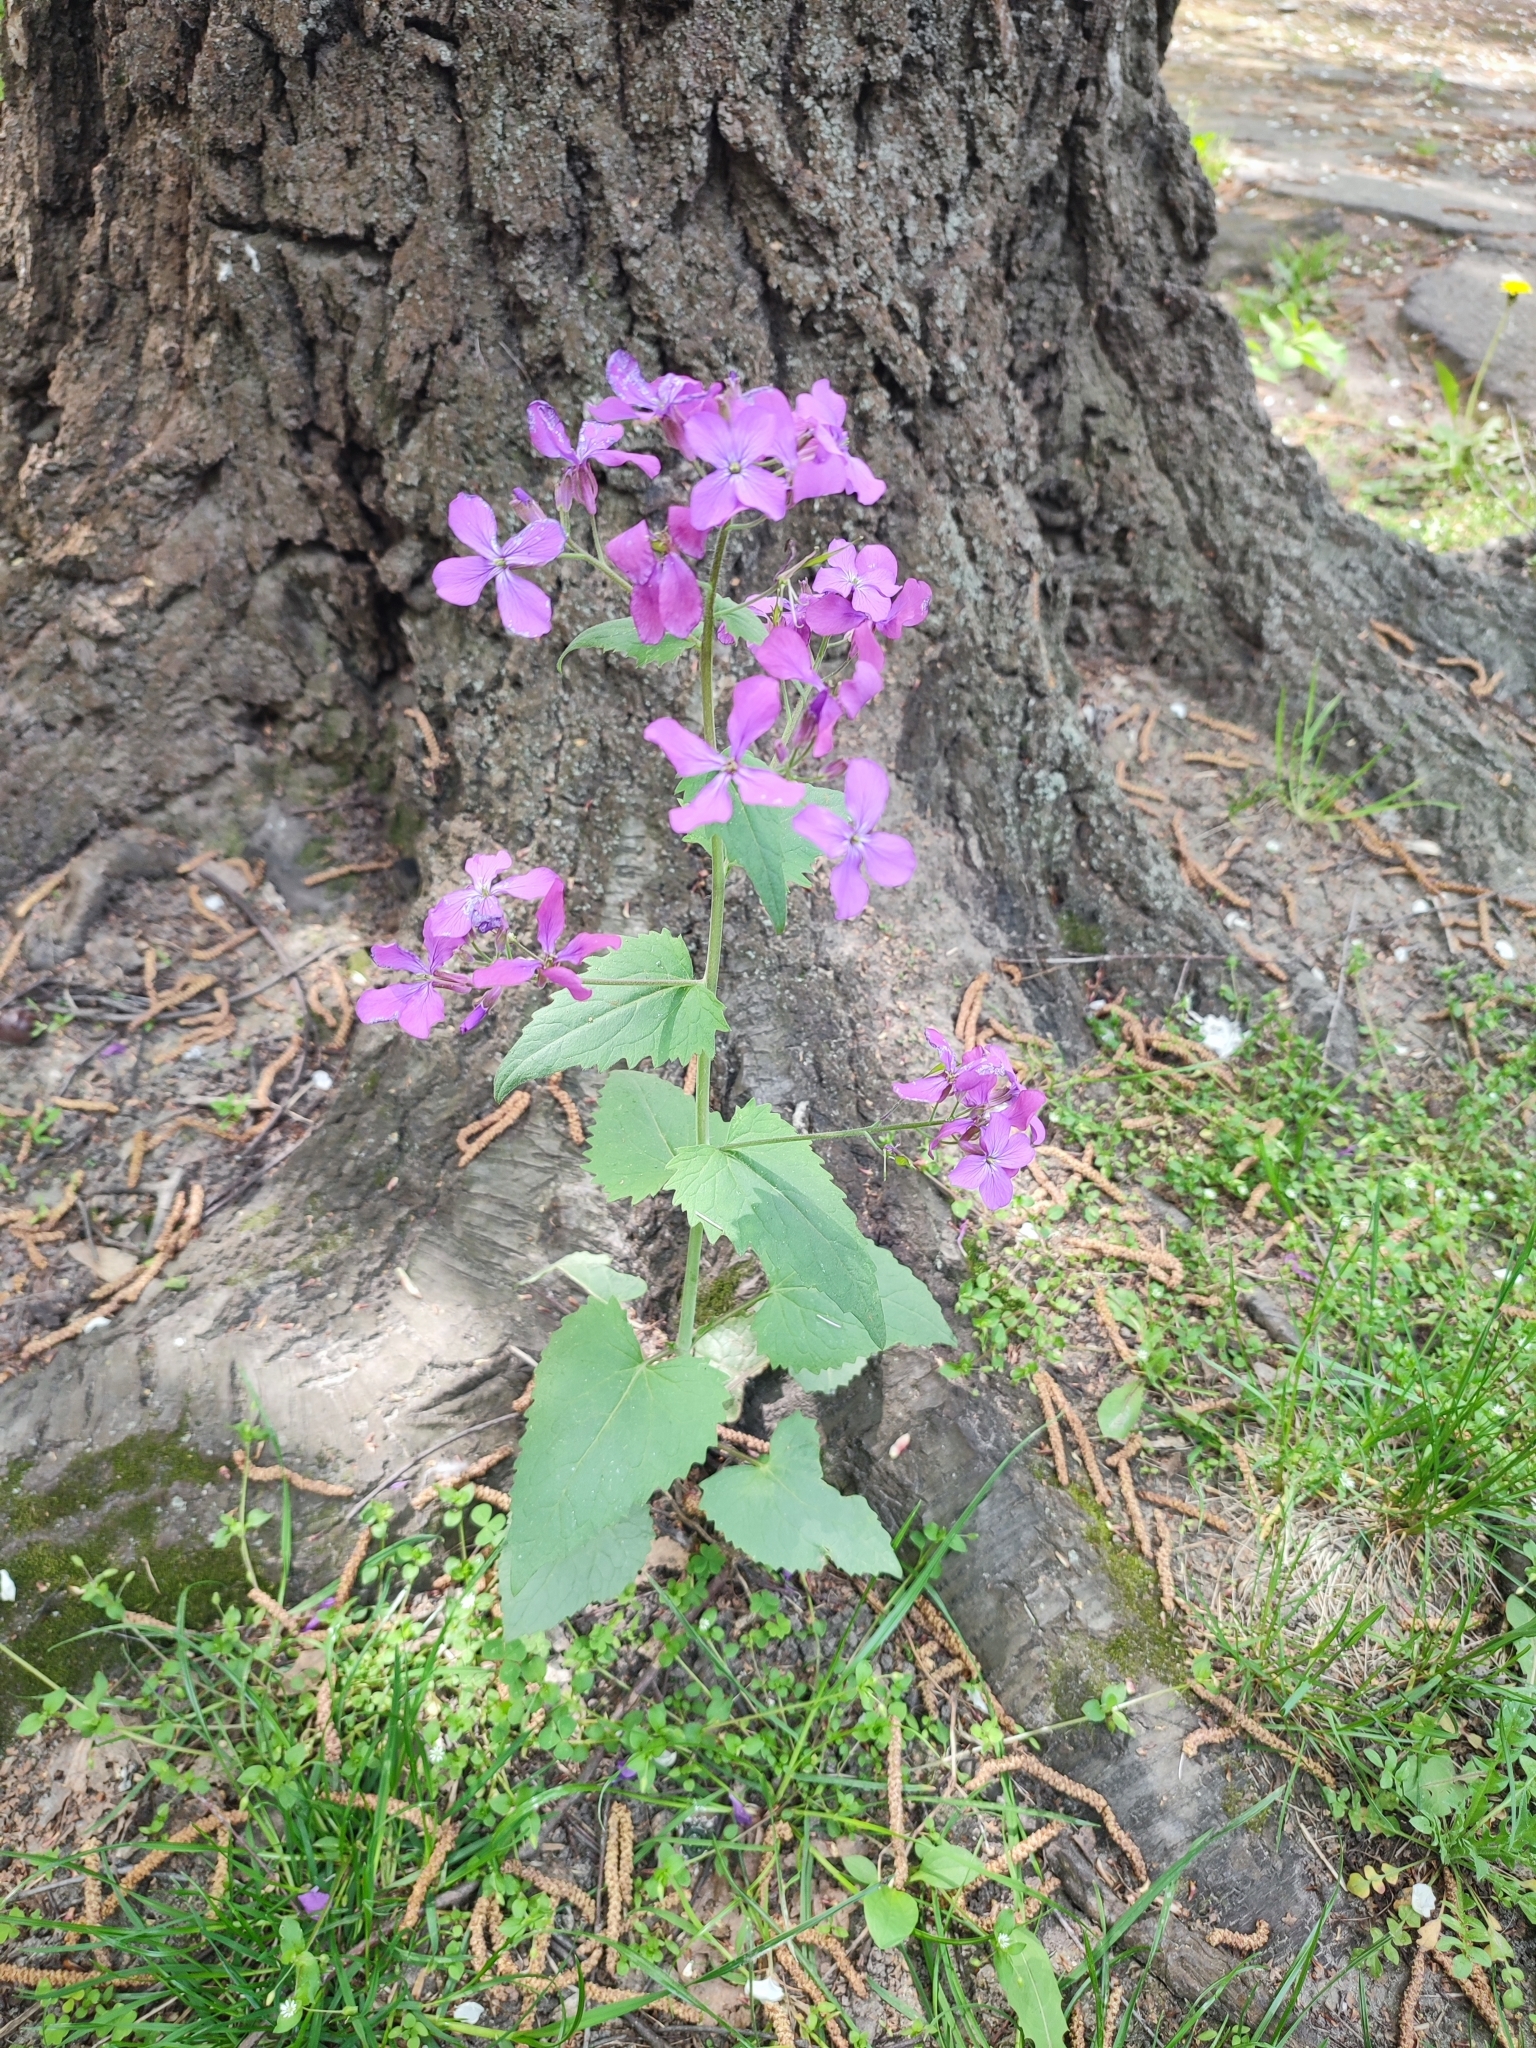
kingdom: Plantae
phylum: Tracheophyta
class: Magnoliopsida
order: Brassicales
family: Brassicaceae
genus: Lunaria
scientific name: Lunaria annua
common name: Honesty
